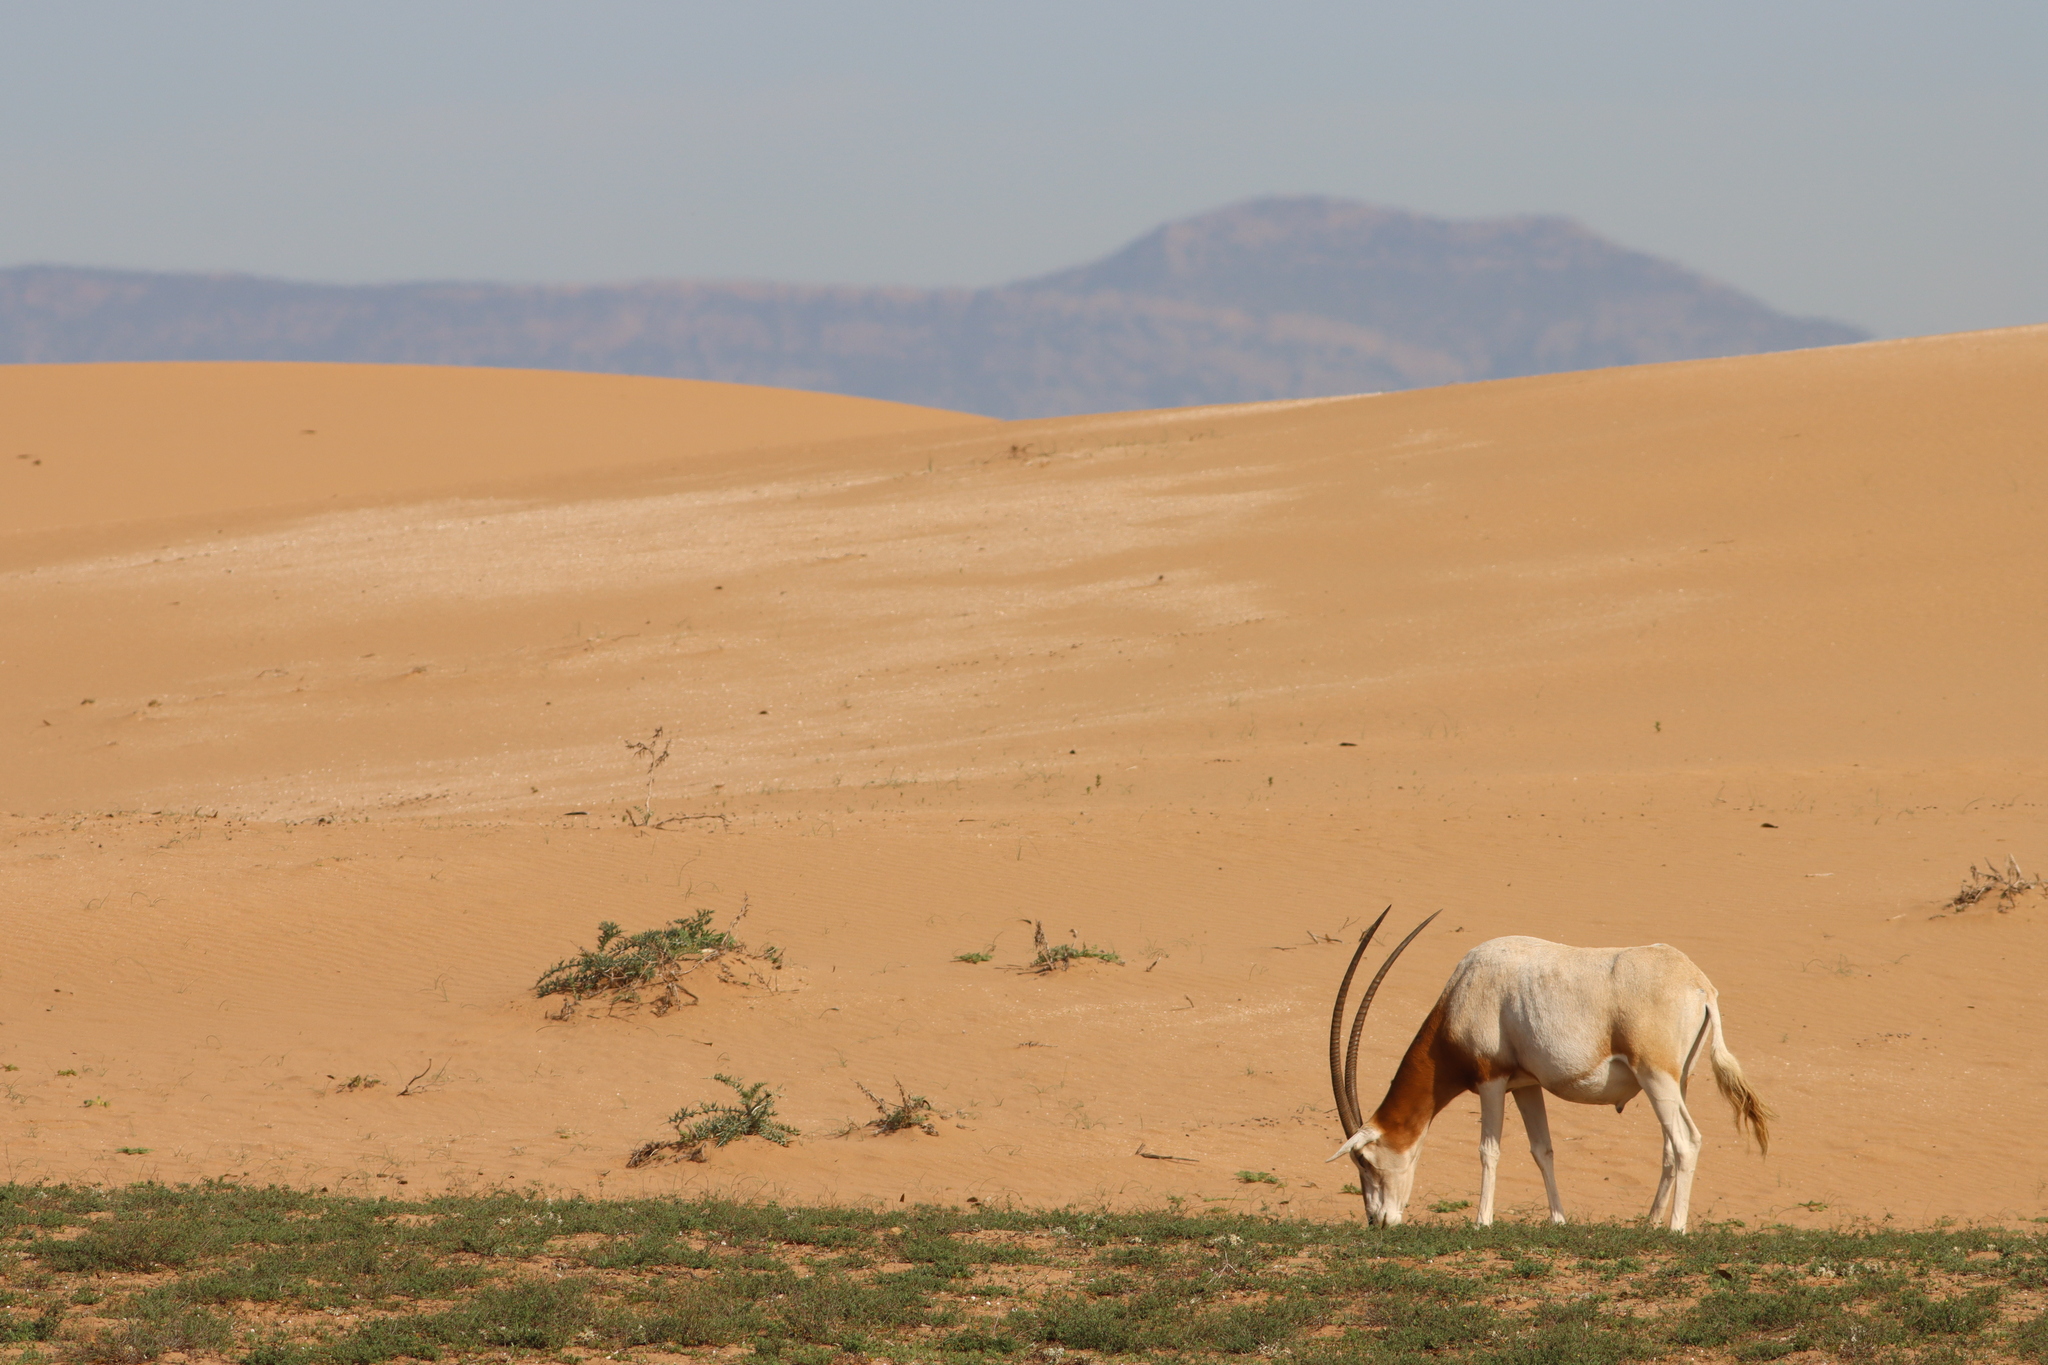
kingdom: Animalia
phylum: Chordata
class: Mammalia
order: Artiodactyla
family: Bovidae
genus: Oryx
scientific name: Oryx dammah
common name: Scimitar-horned oryx
